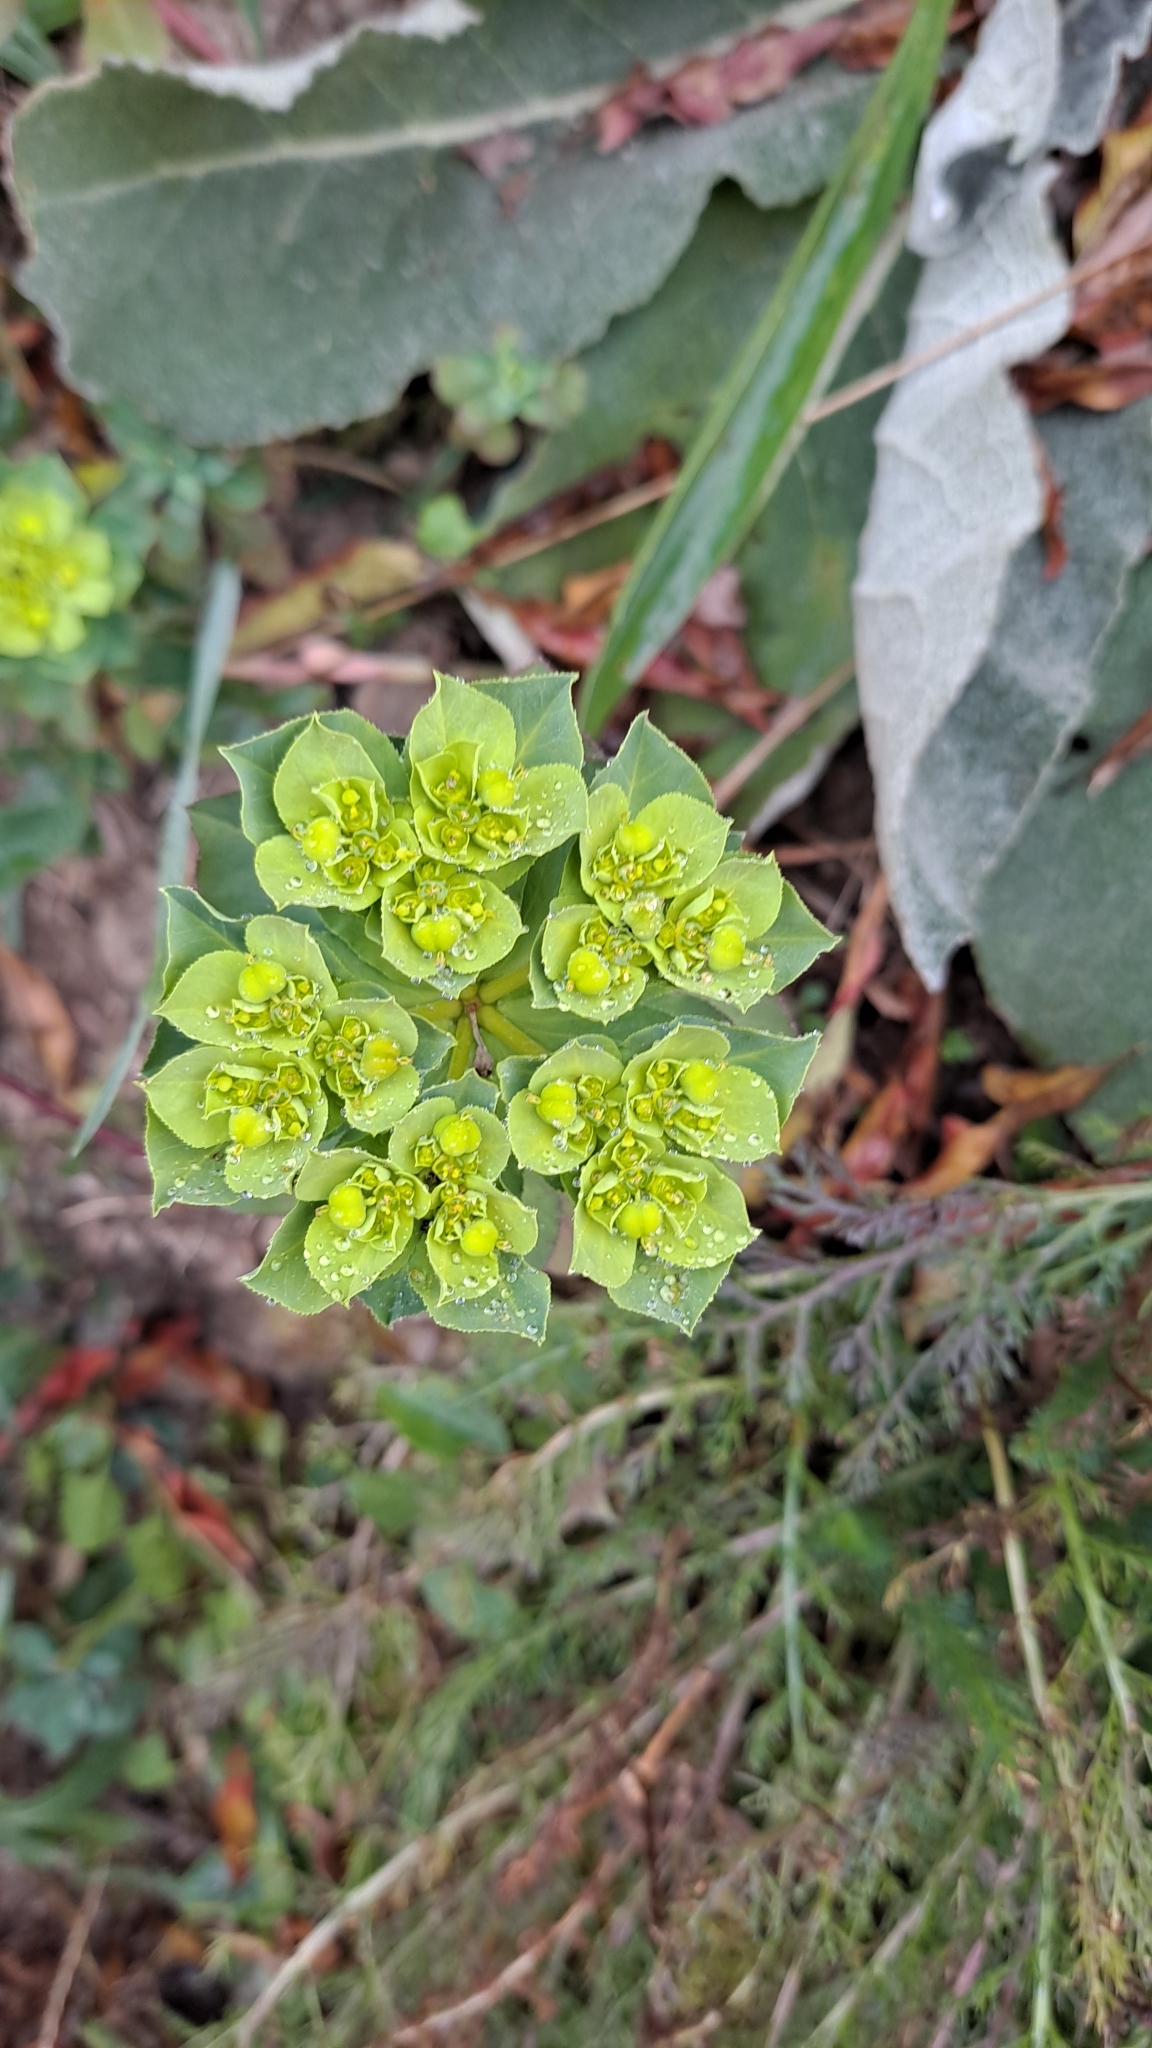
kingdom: Plantae
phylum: Tracheophyta
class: Magnoliopsida
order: Malpighiales
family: Euphorbiaceae
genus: Euphorbia
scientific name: Euphorbia helioscopia
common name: Sun spurge
